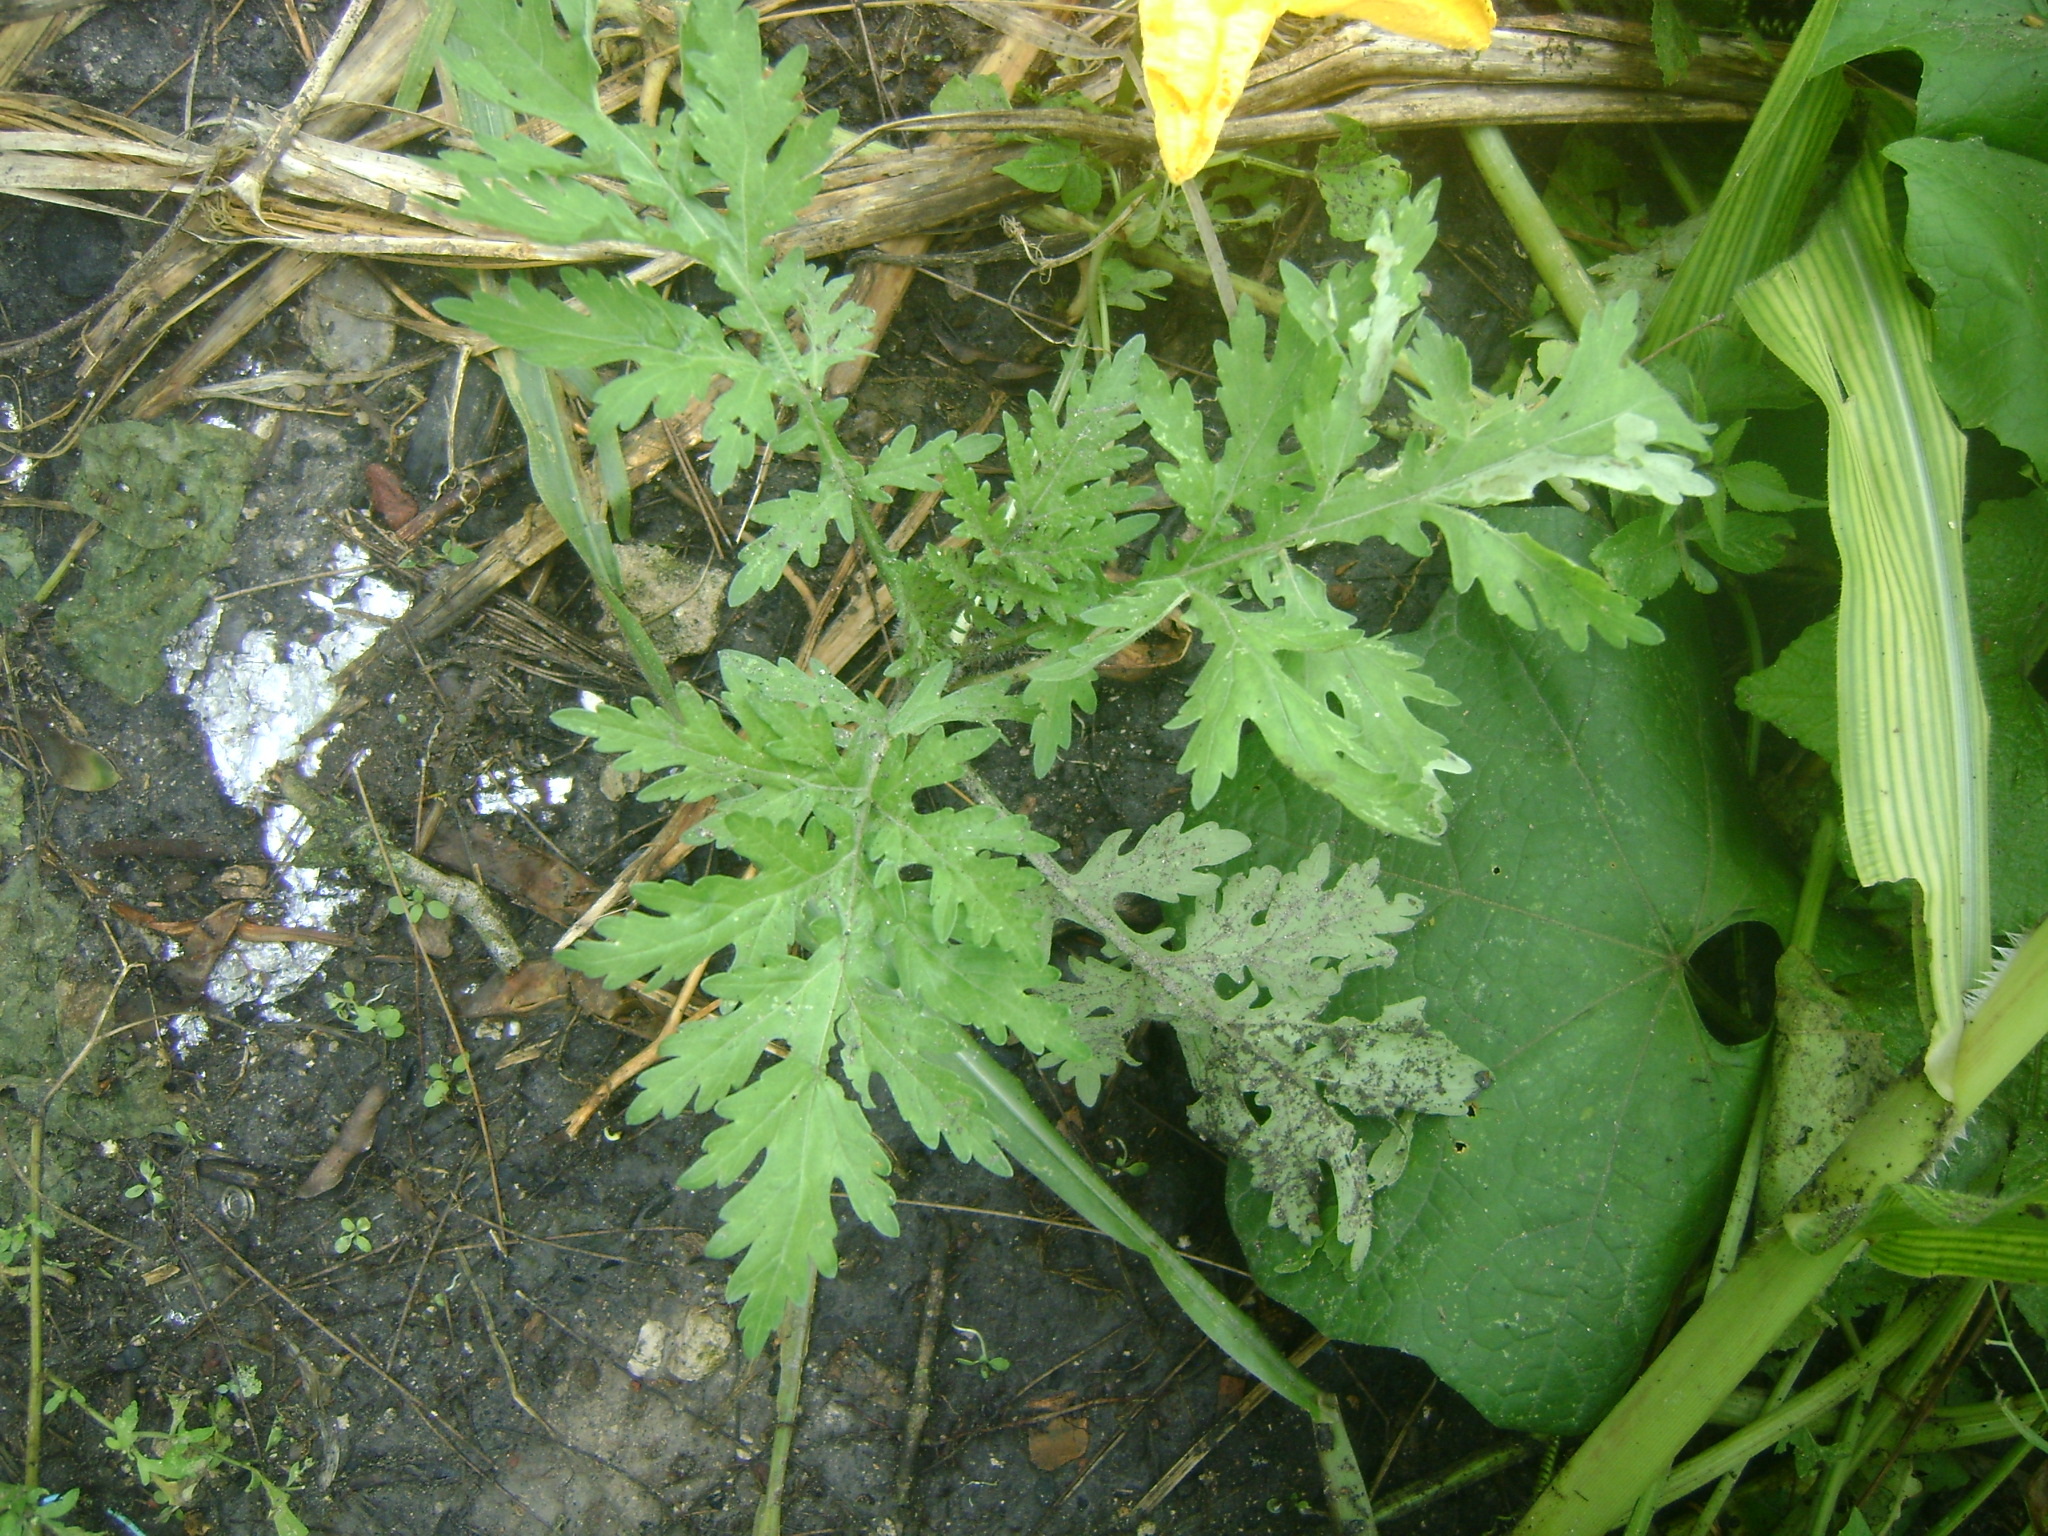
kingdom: Plantae
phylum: Tracheophyta
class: Magnoliopsida
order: Asterales
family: Asteraceae
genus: Parthenium
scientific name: Parthenium hysterophorus
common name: Santa maria feverfew
